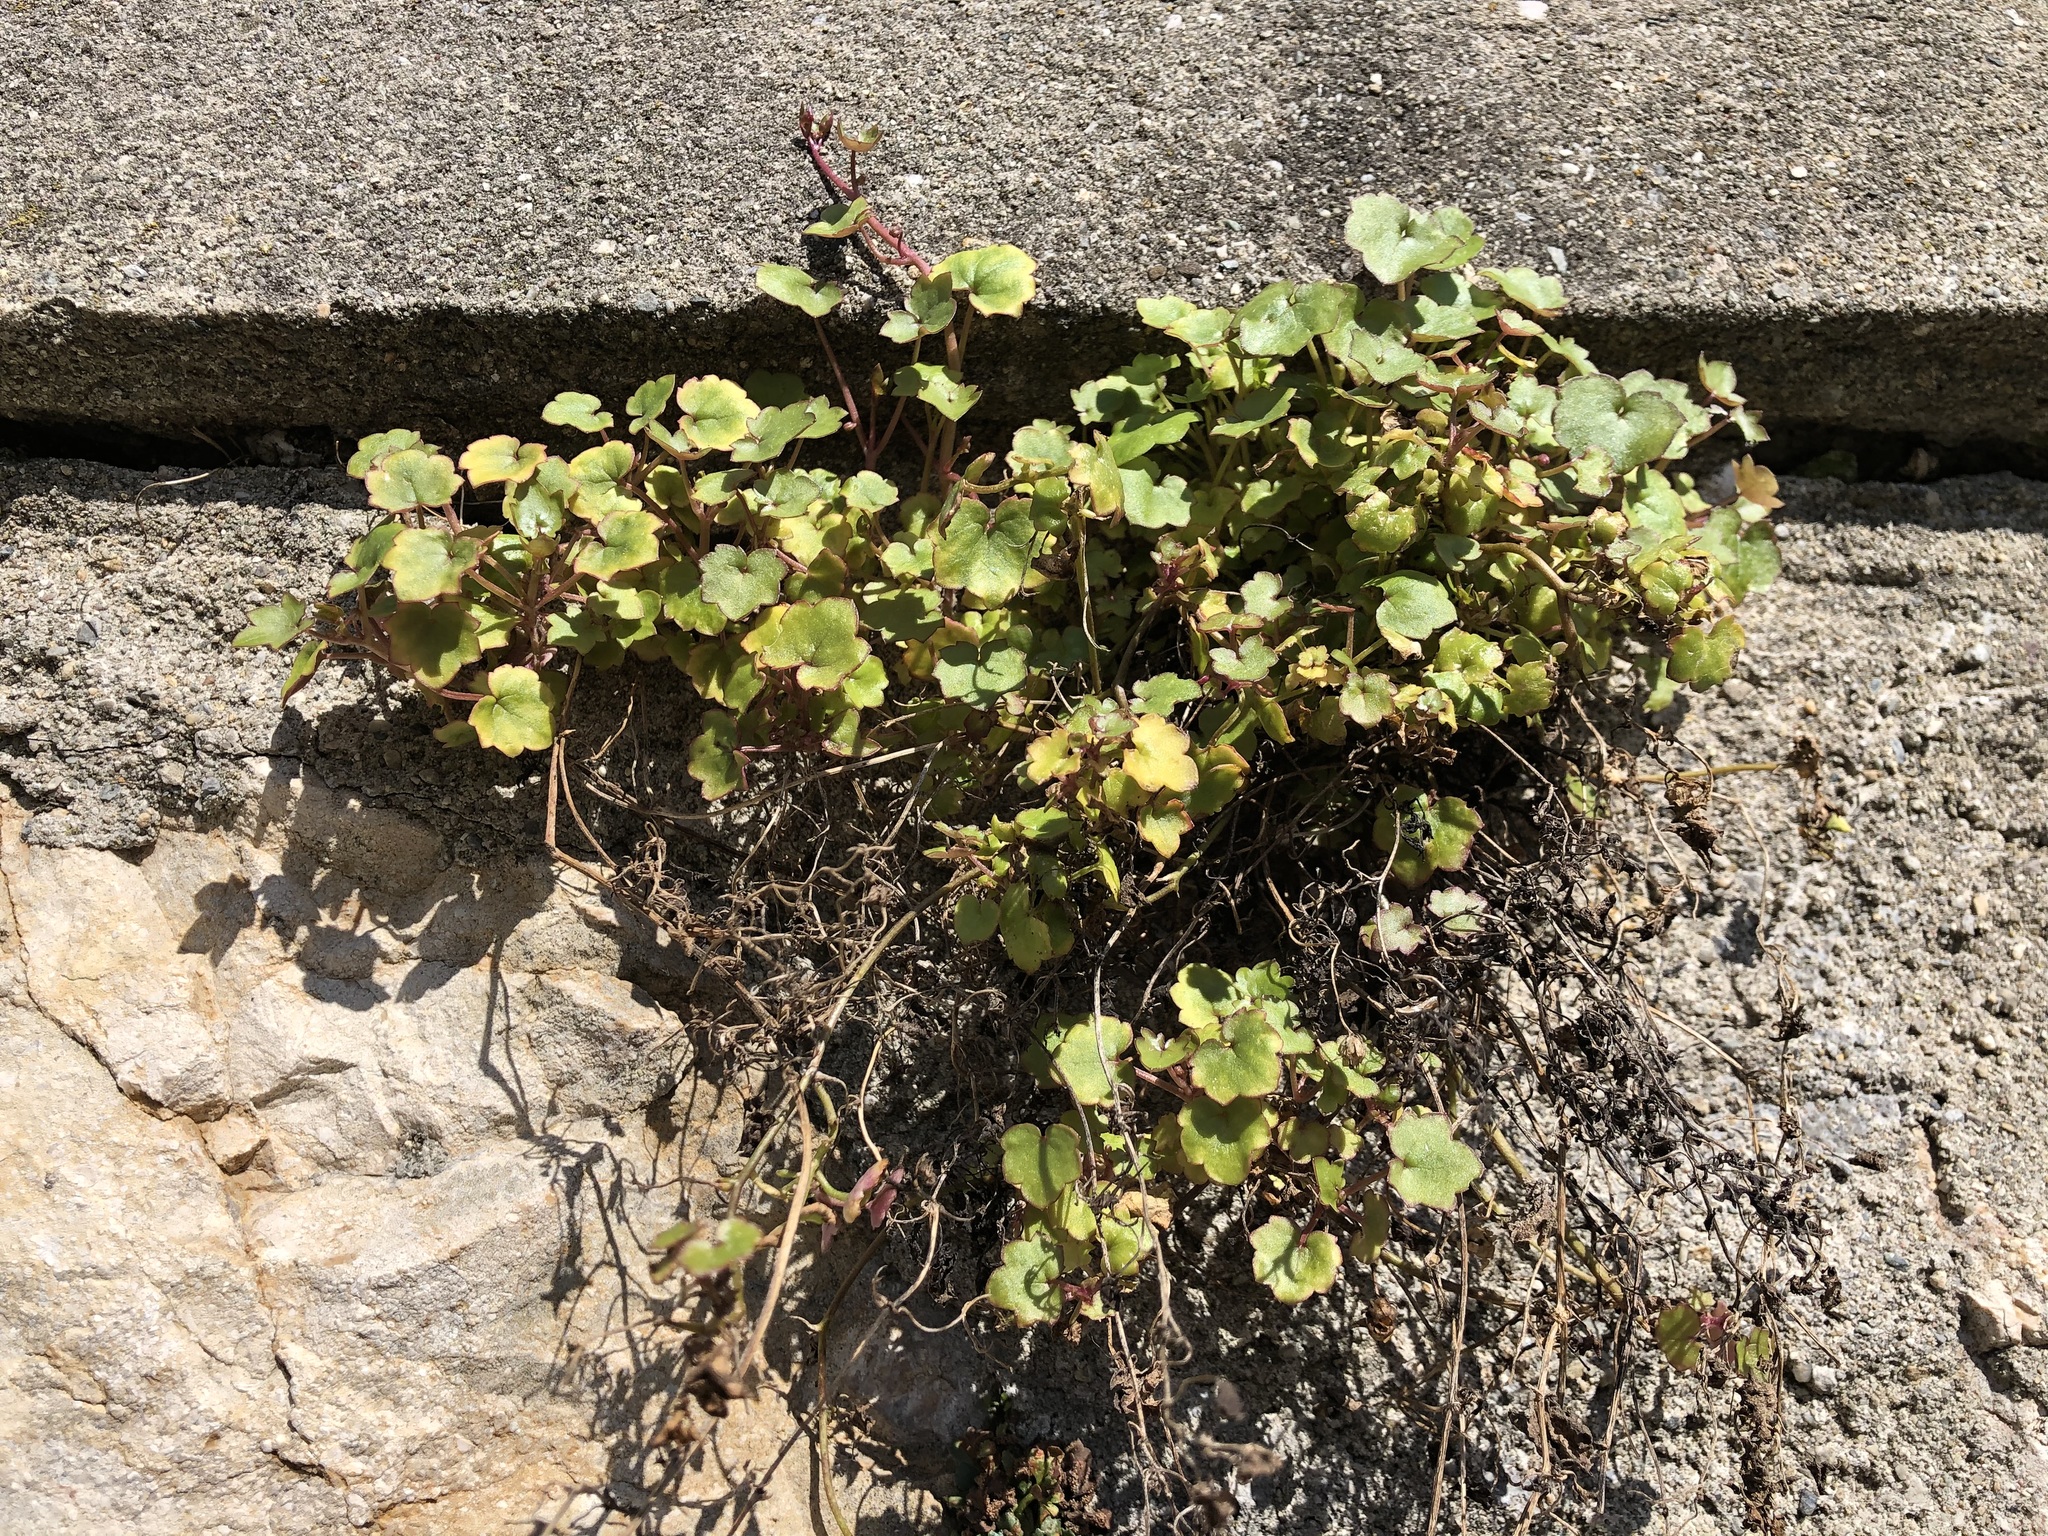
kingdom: Plantae
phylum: Tracheophyta
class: Magnoliopsida
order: Lamiales
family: Plantaginaceae
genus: Cymbalaria
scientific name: Cymbalaria muralis
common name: Ivy-leaved toadflax
